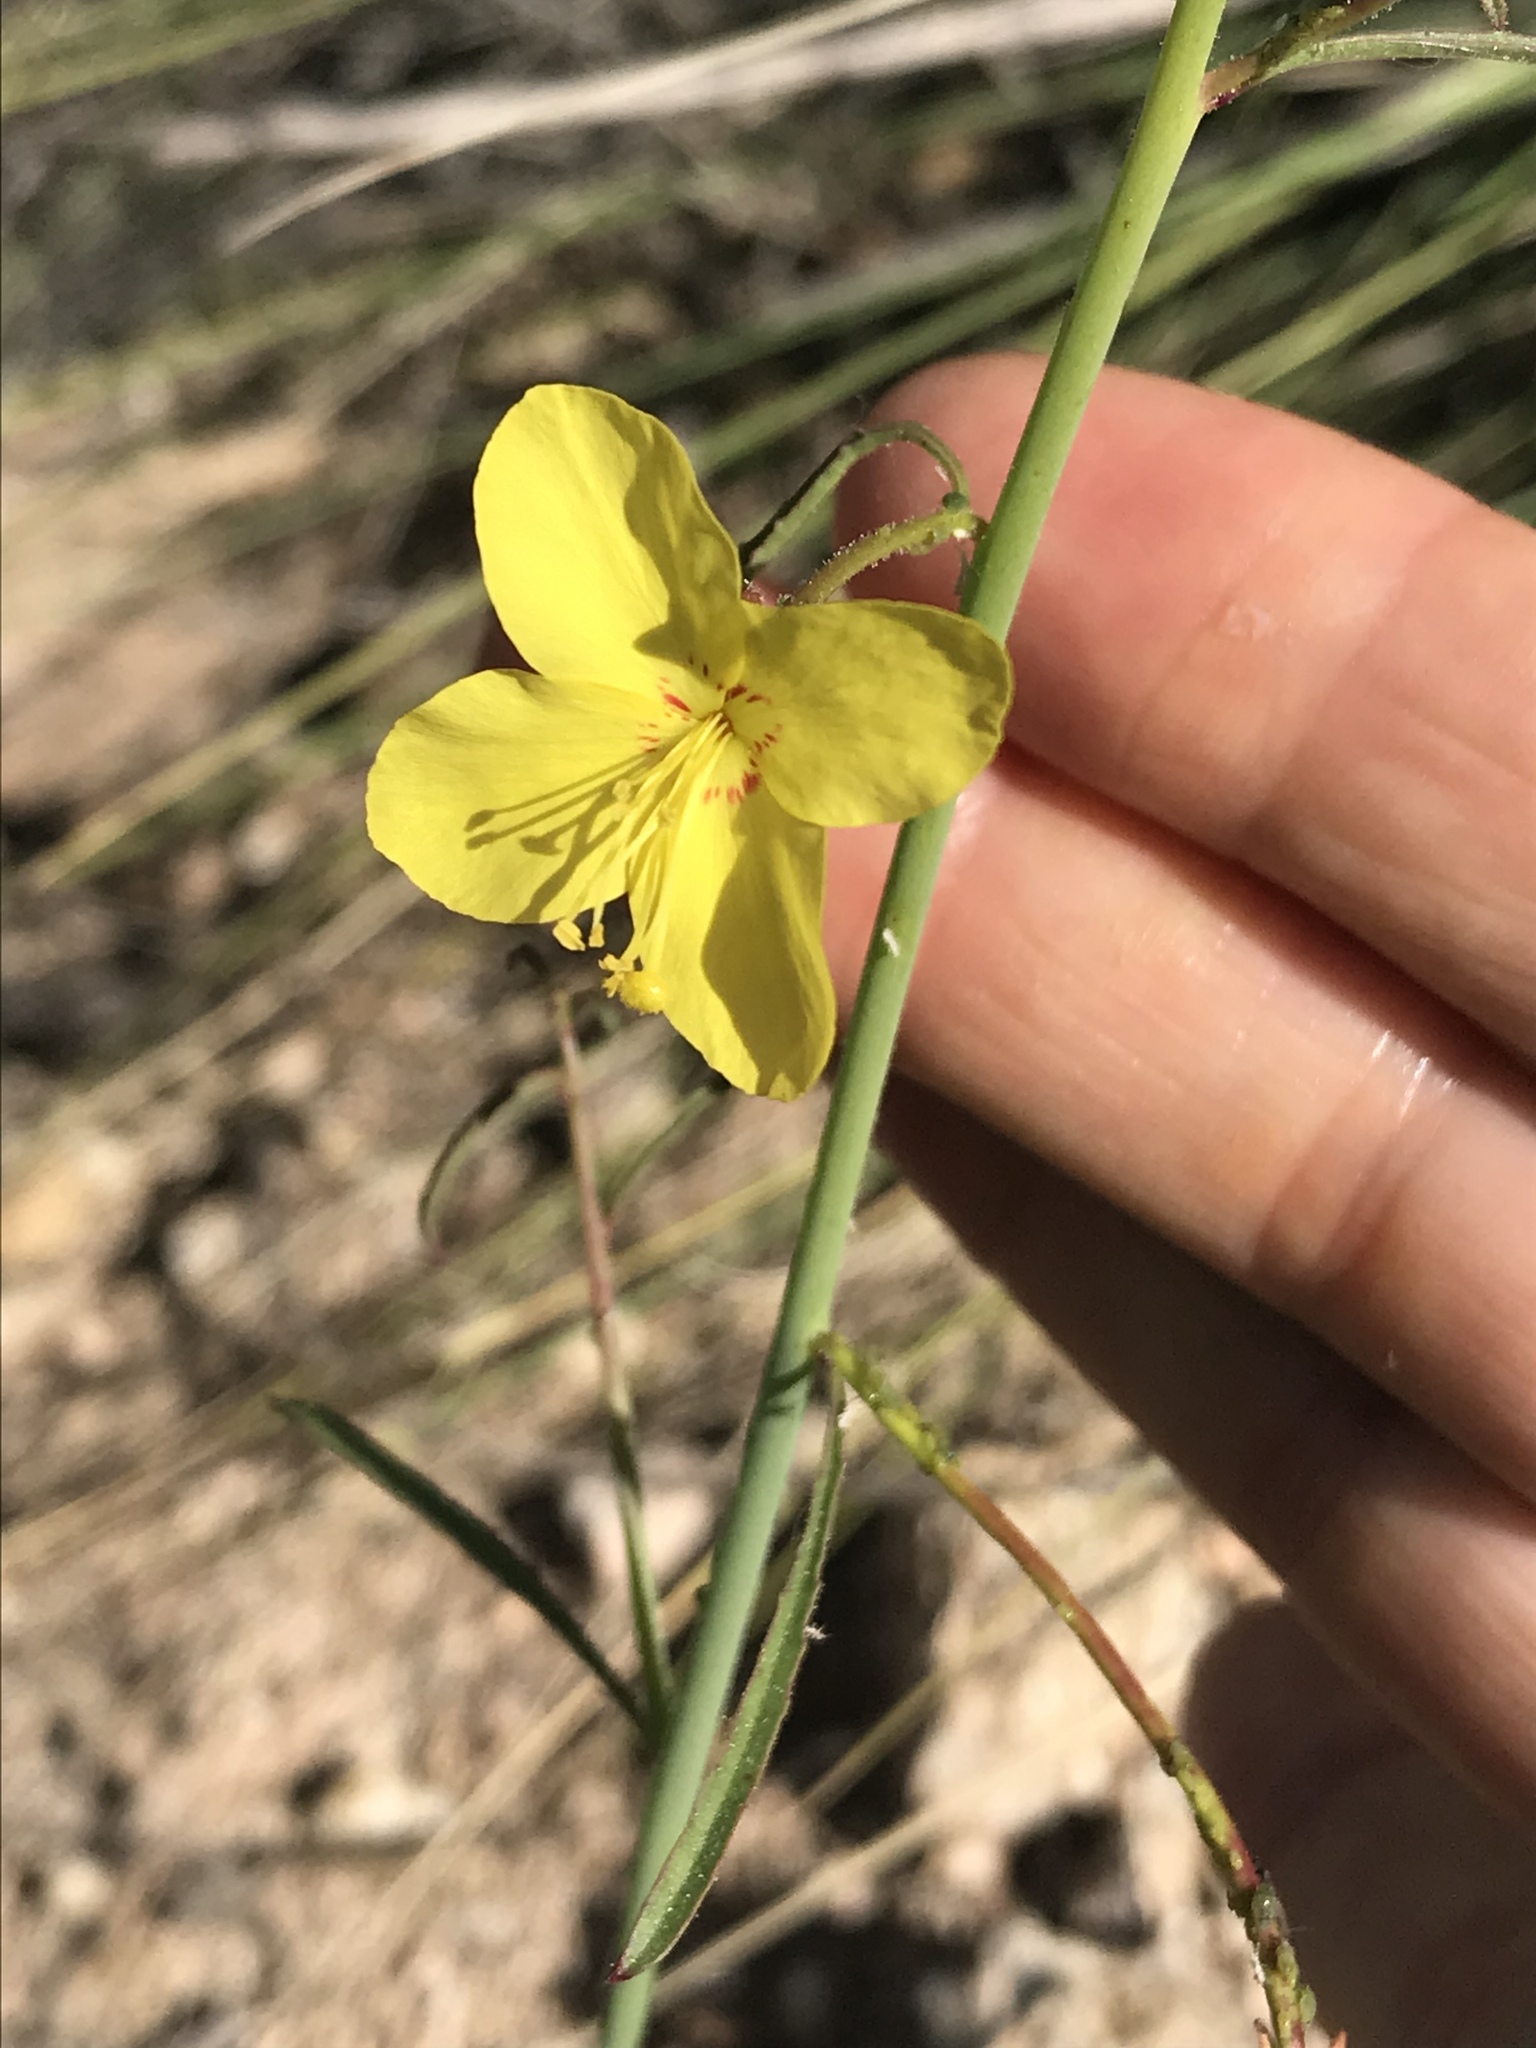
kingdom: Plantae
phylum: Tracheophyta
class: Magnoliopsida
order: Myrtales
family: Onagraceae
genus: Eulobus
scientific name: Eulobus californicus
